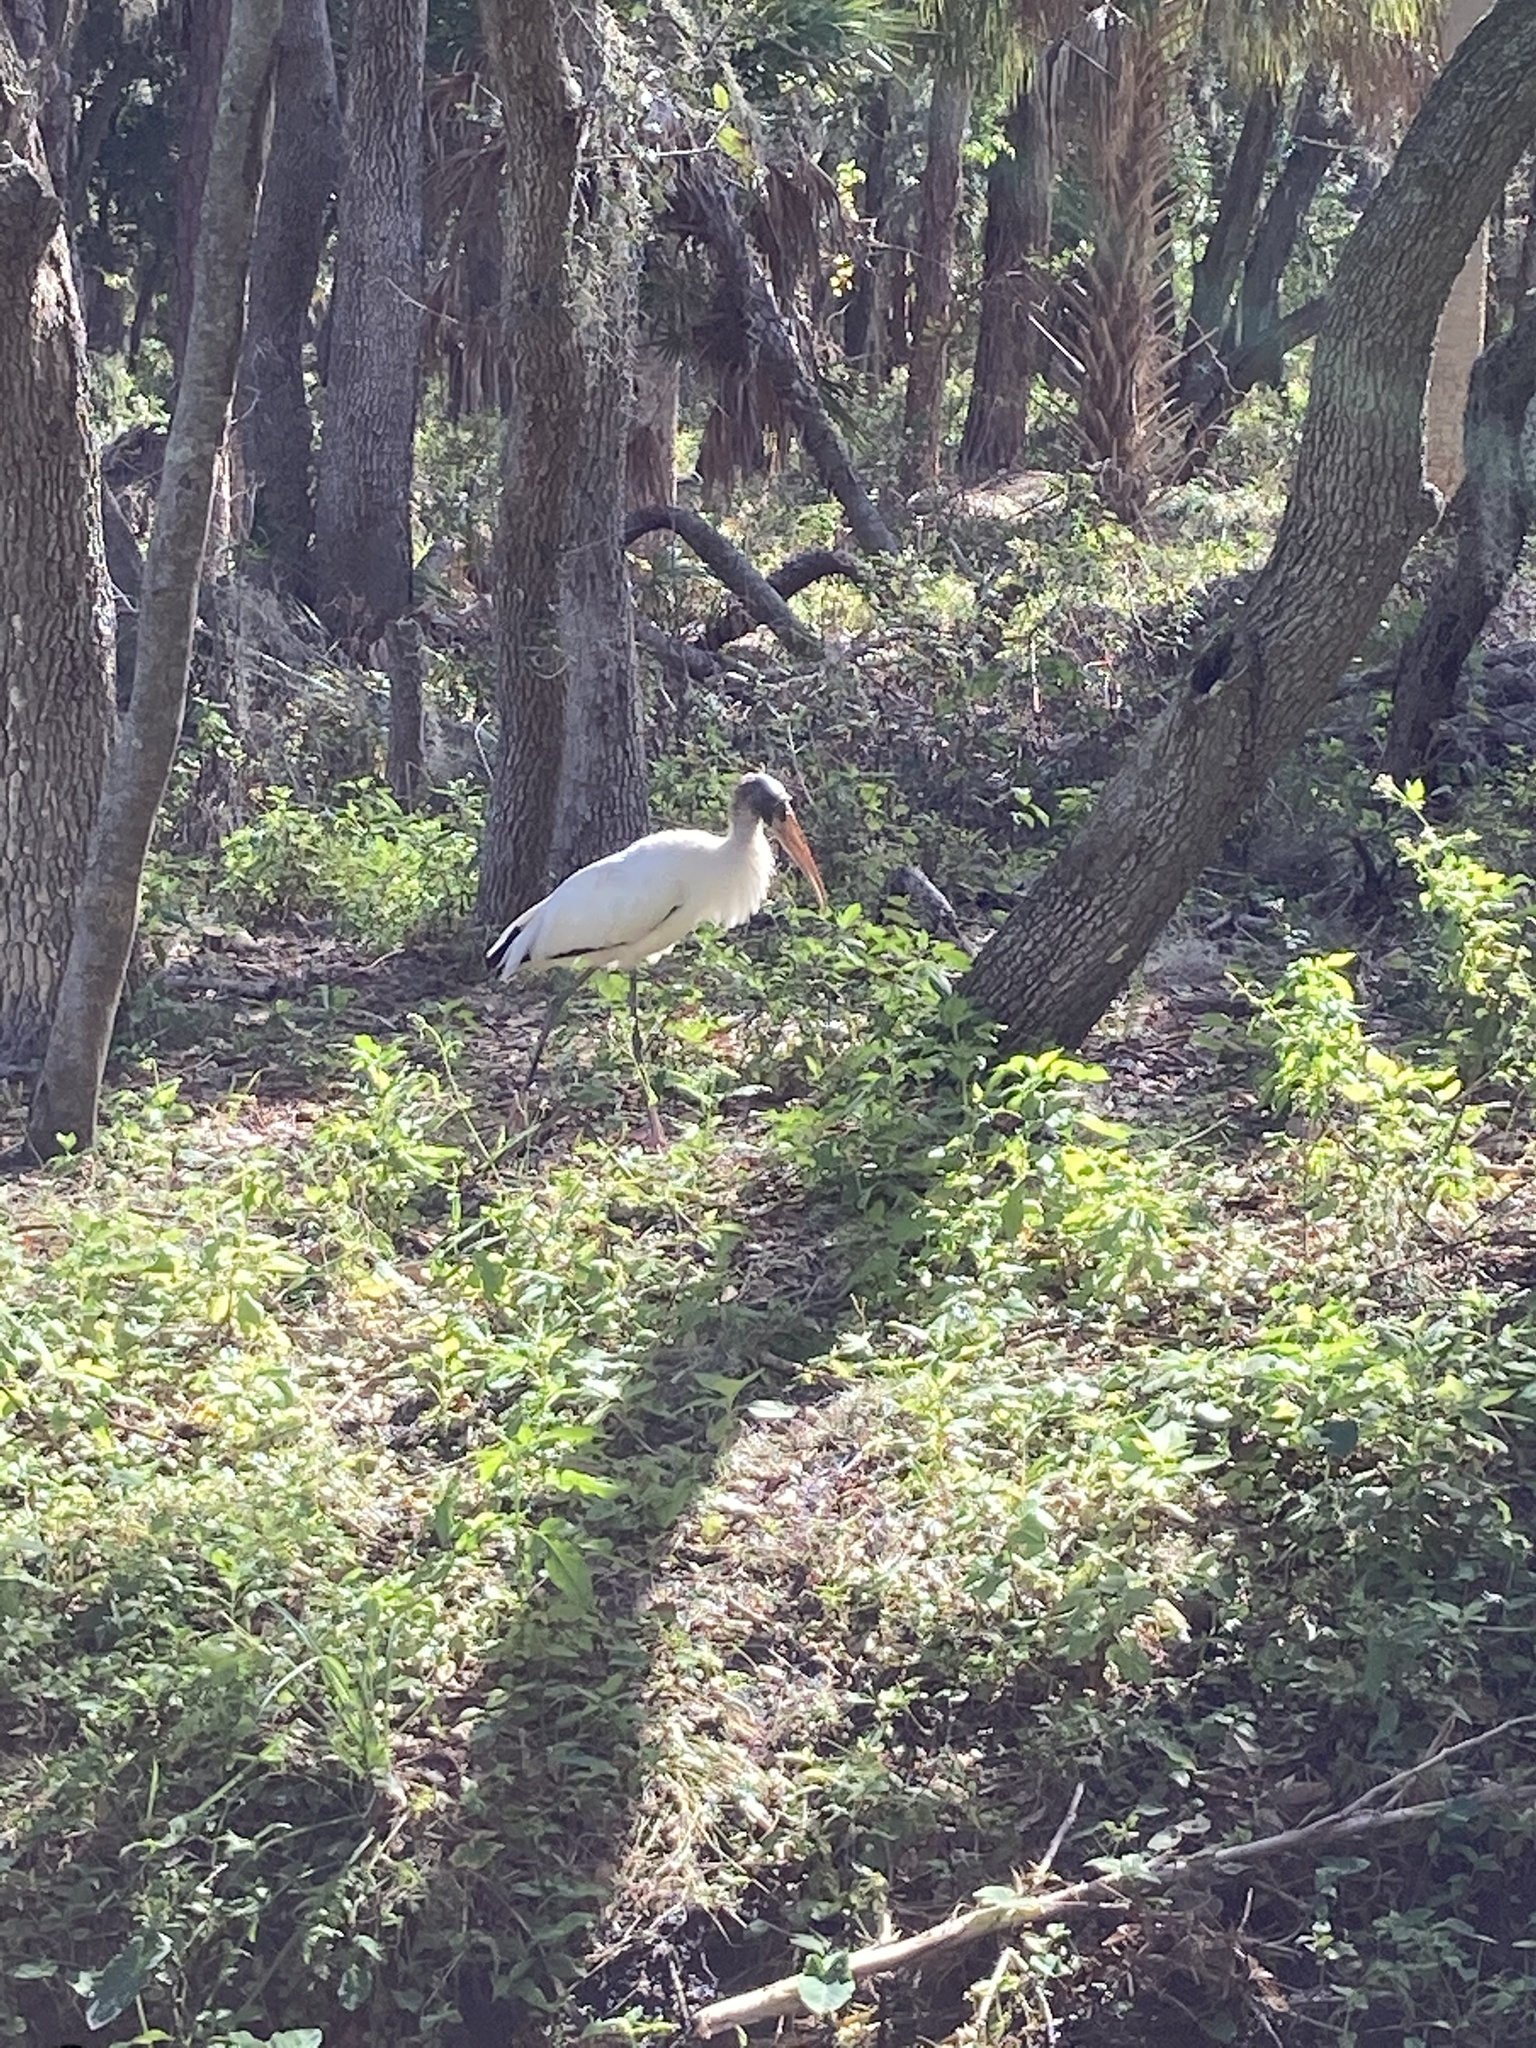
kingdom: Animalia
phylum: Chordata
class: Aves
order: Ciconiiformes
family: Ciconiidae
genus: Mycteria
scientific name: Mycteria americana
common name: Wood stork
